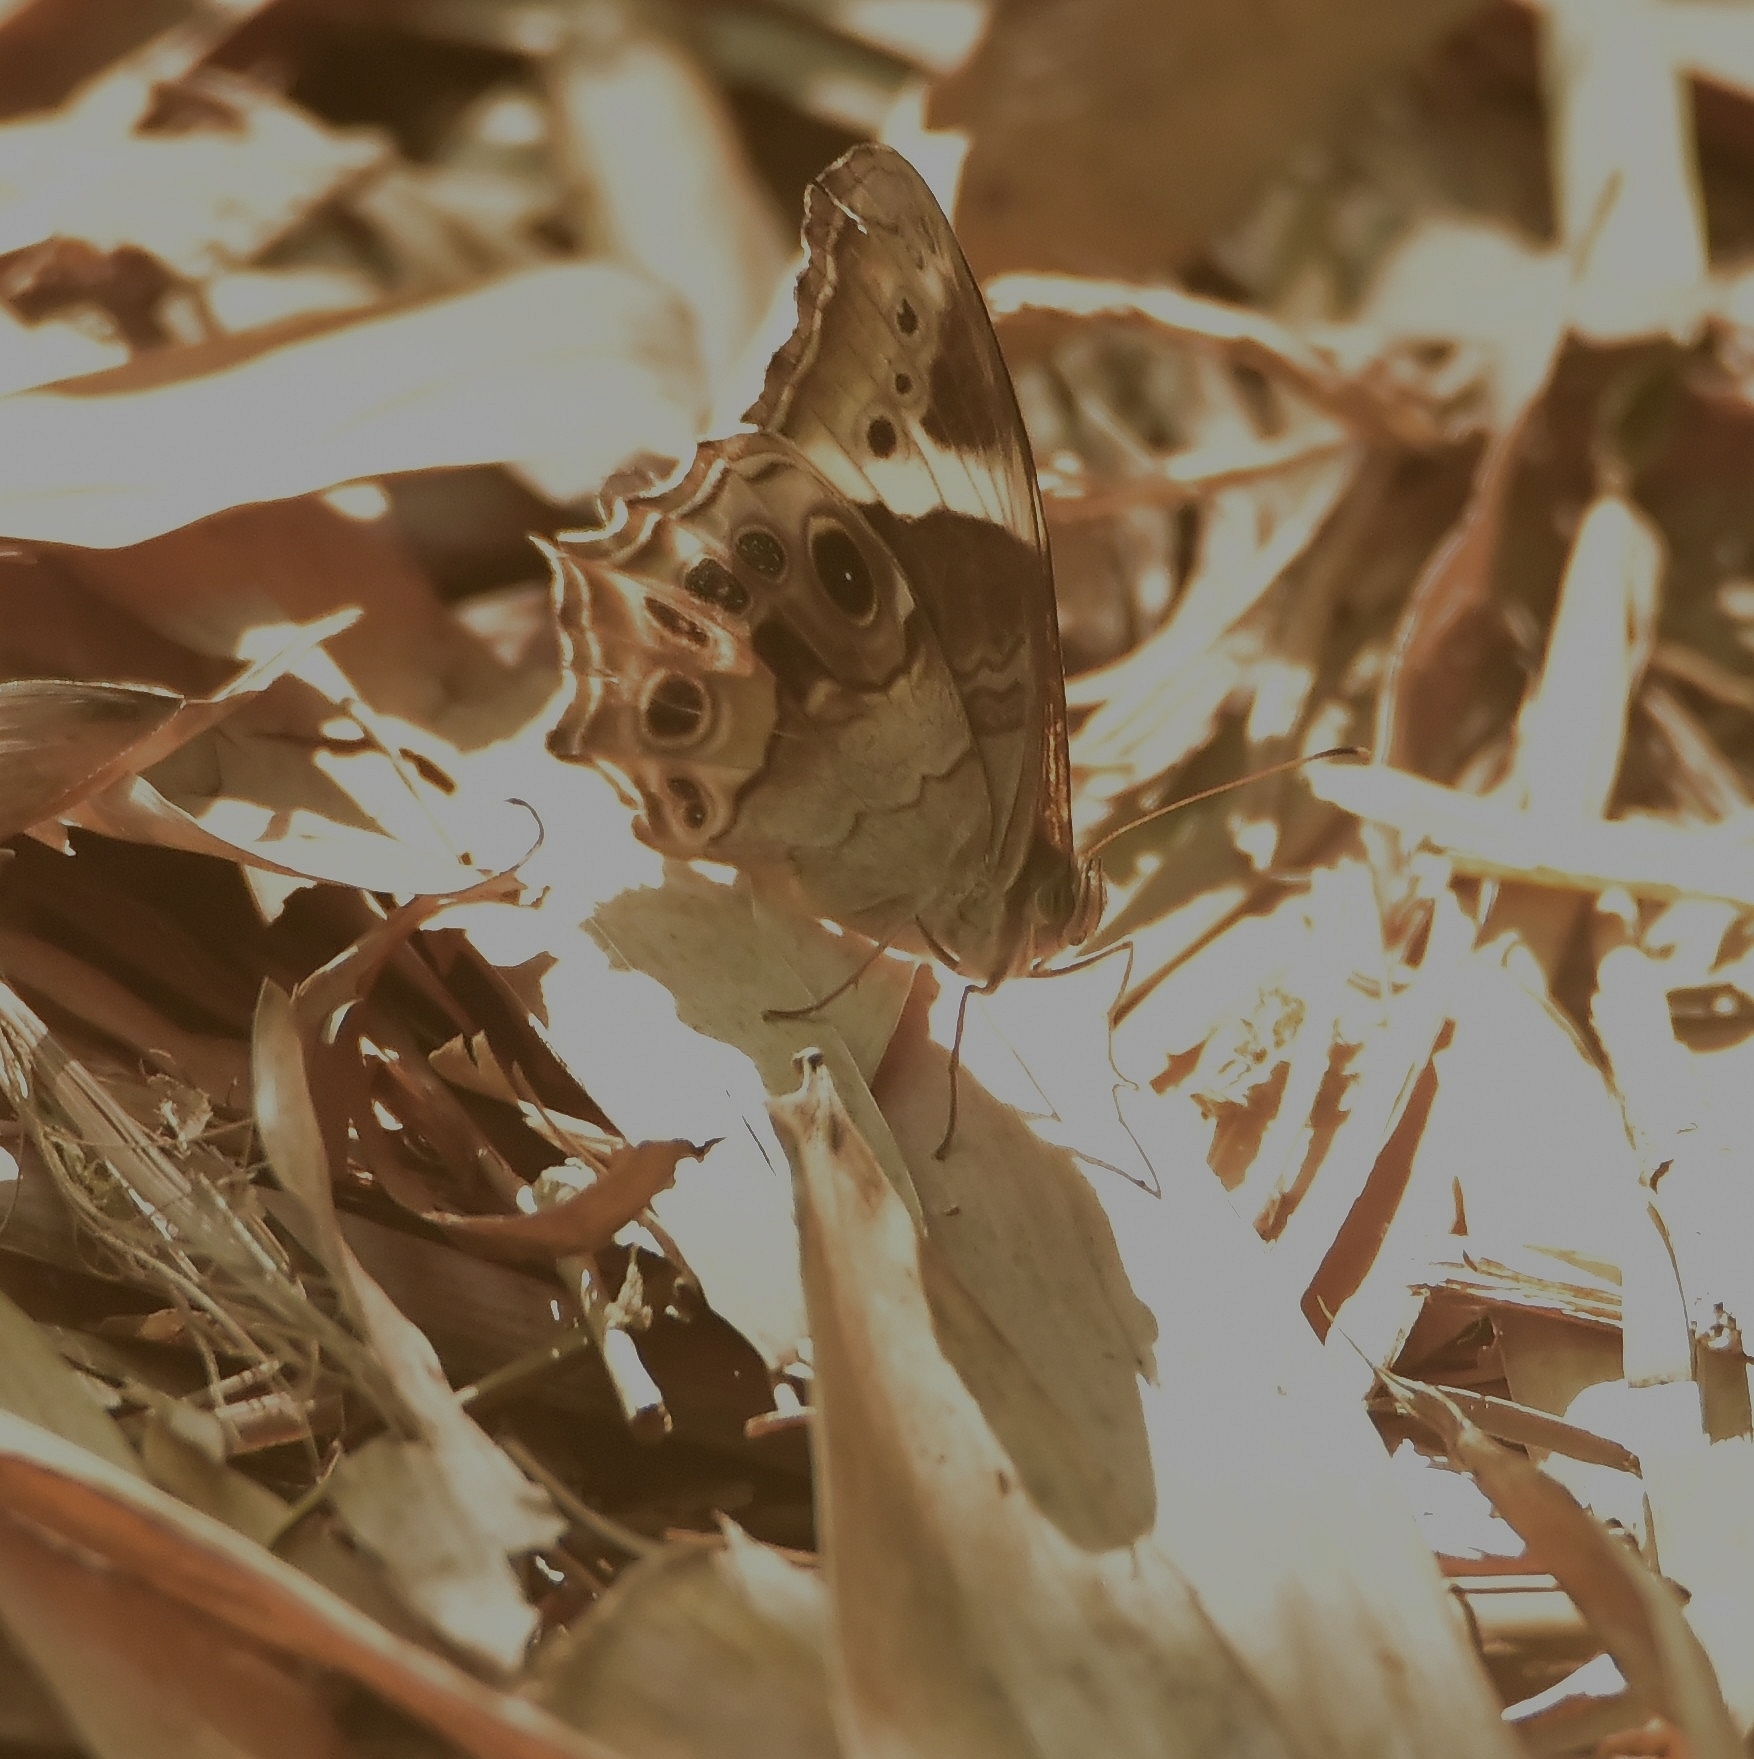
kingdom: Animalia
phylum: Arthropoda
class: Insecta
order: Lepidoptera
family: Nymphalidae
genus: Lethe
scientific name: Lethe drypetis
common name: Tamil treebrown
